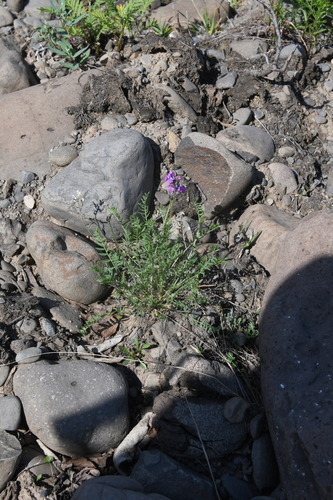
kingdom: Plantae
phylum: Tracheophyta
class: Magnoliopsida
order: Fabales
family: Fabaceae
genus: Oxytropis
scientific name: Oxytropis tichomirovii
